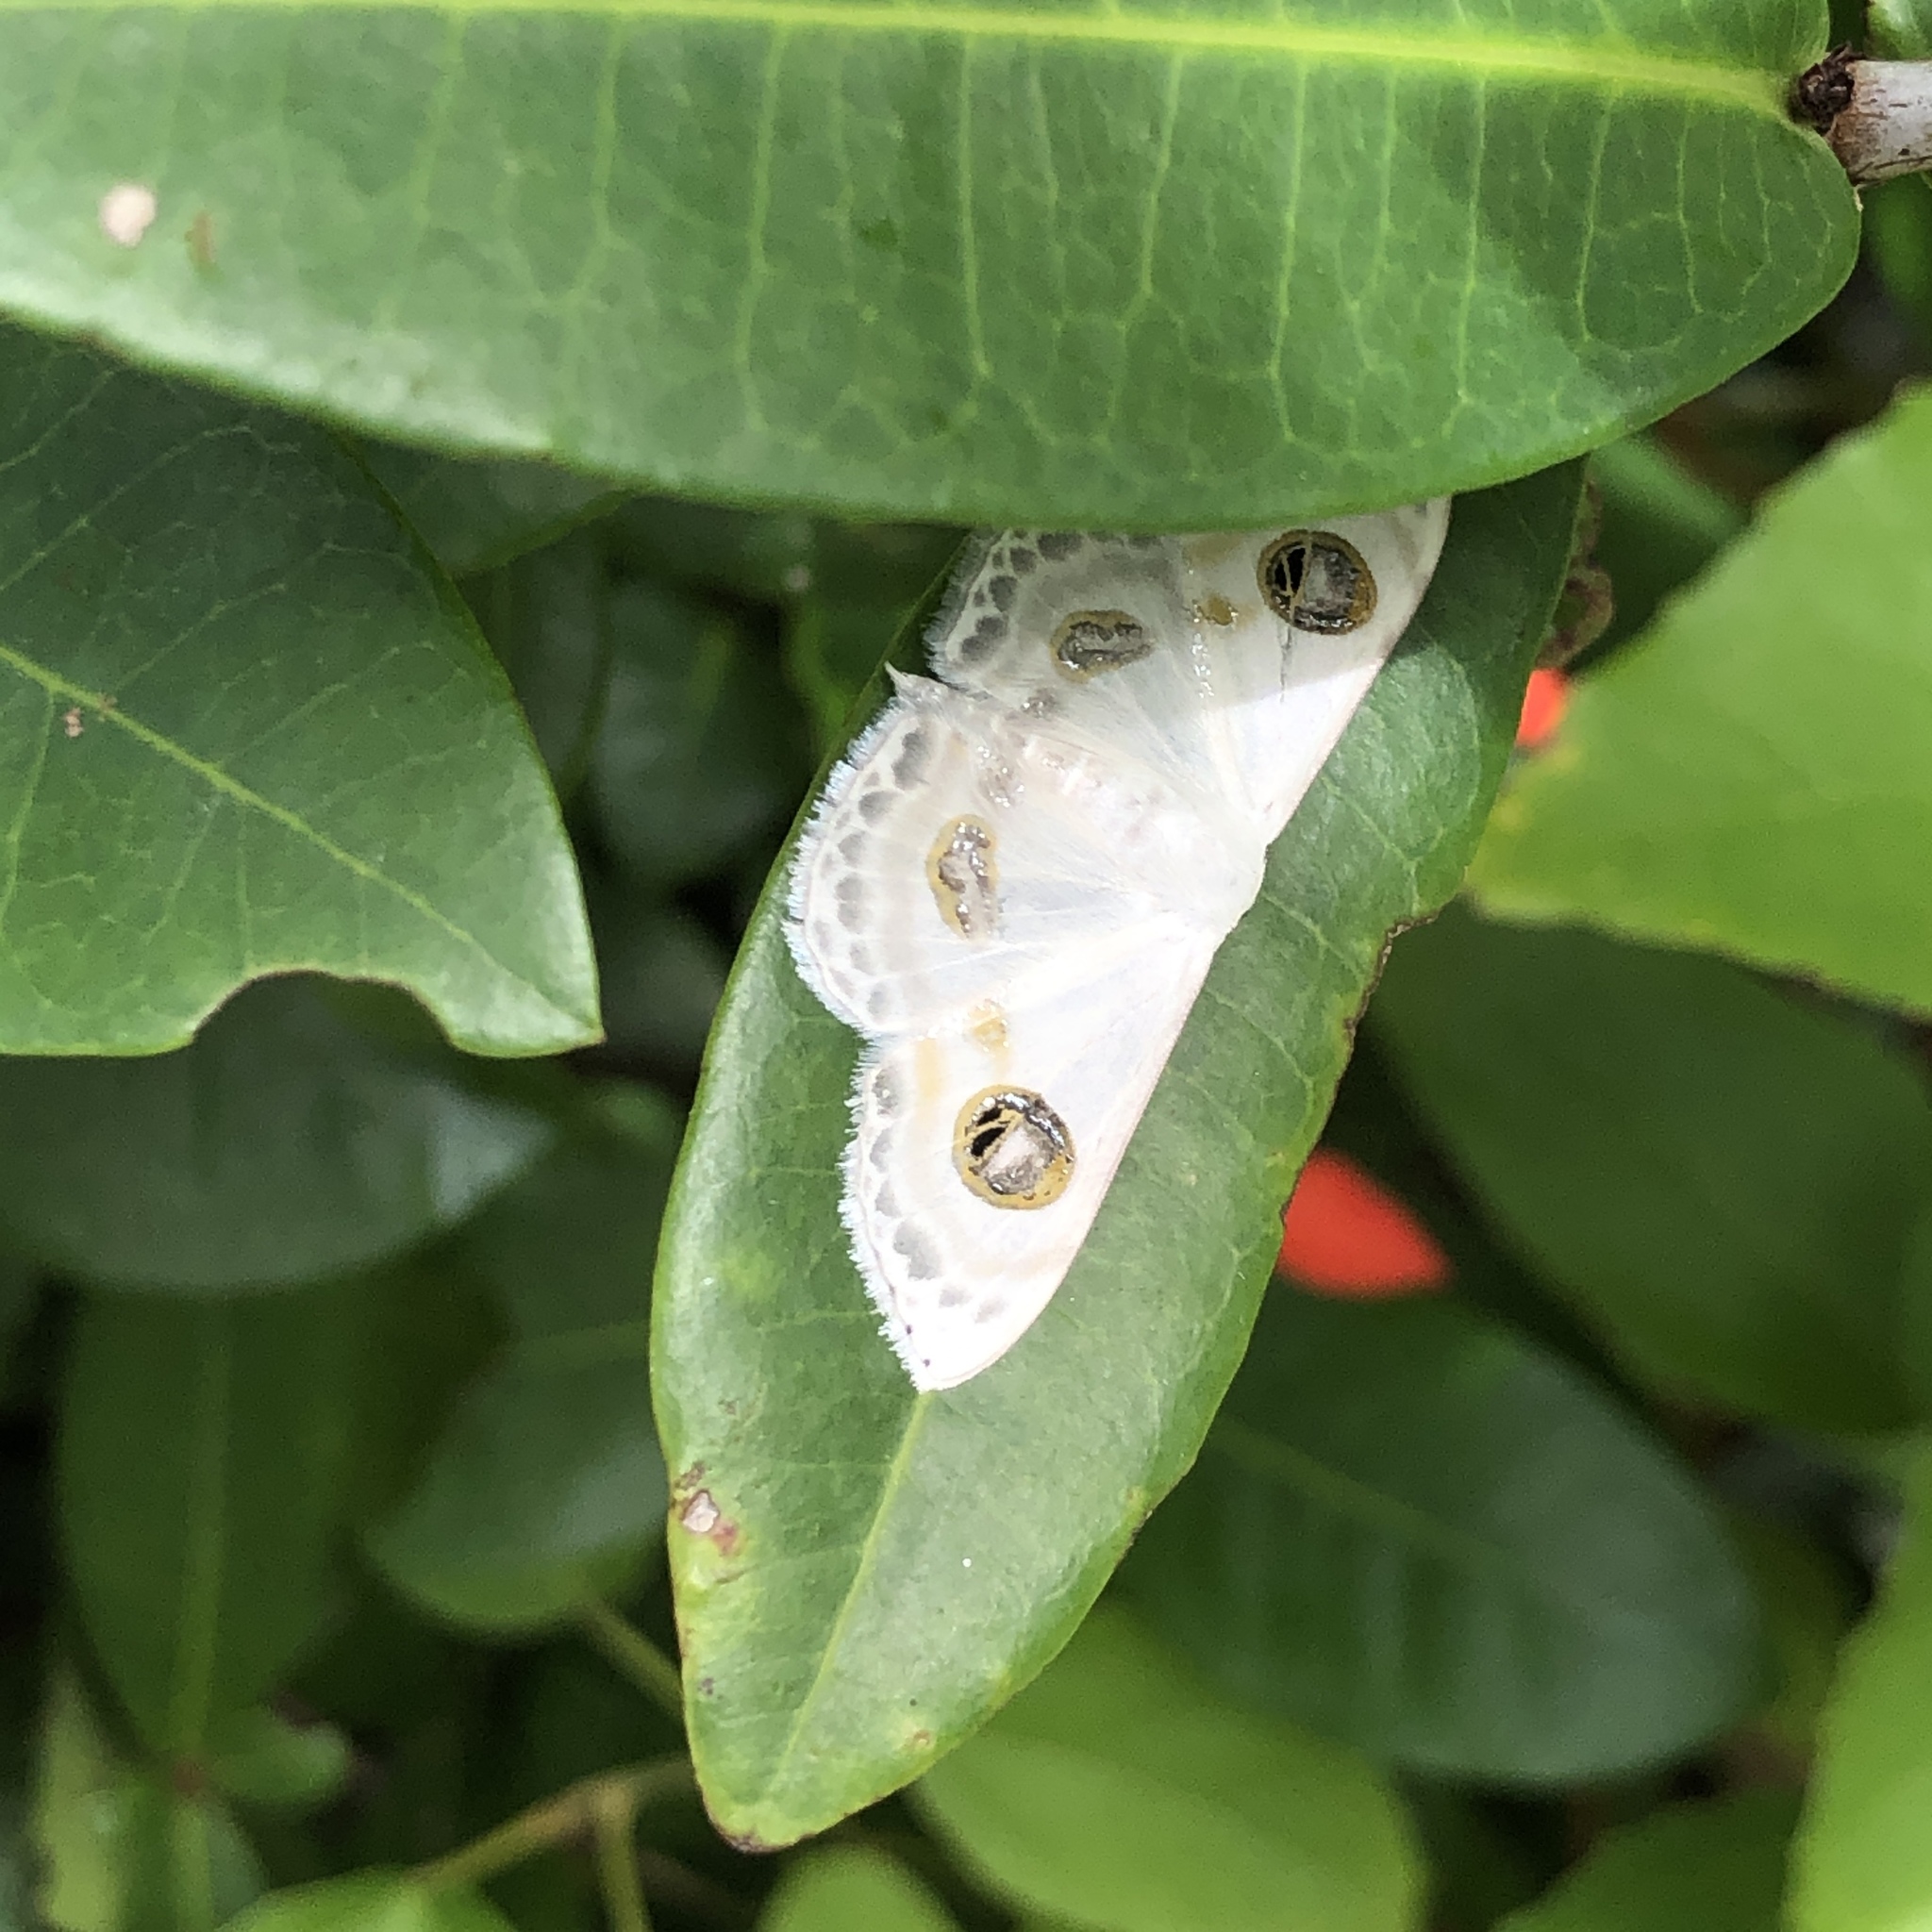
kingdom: Animalia
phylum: Arthropoda
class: Insecta
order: Lepidoptera
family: Geometridae
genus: Problepsis
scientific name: Problepsis albidior
